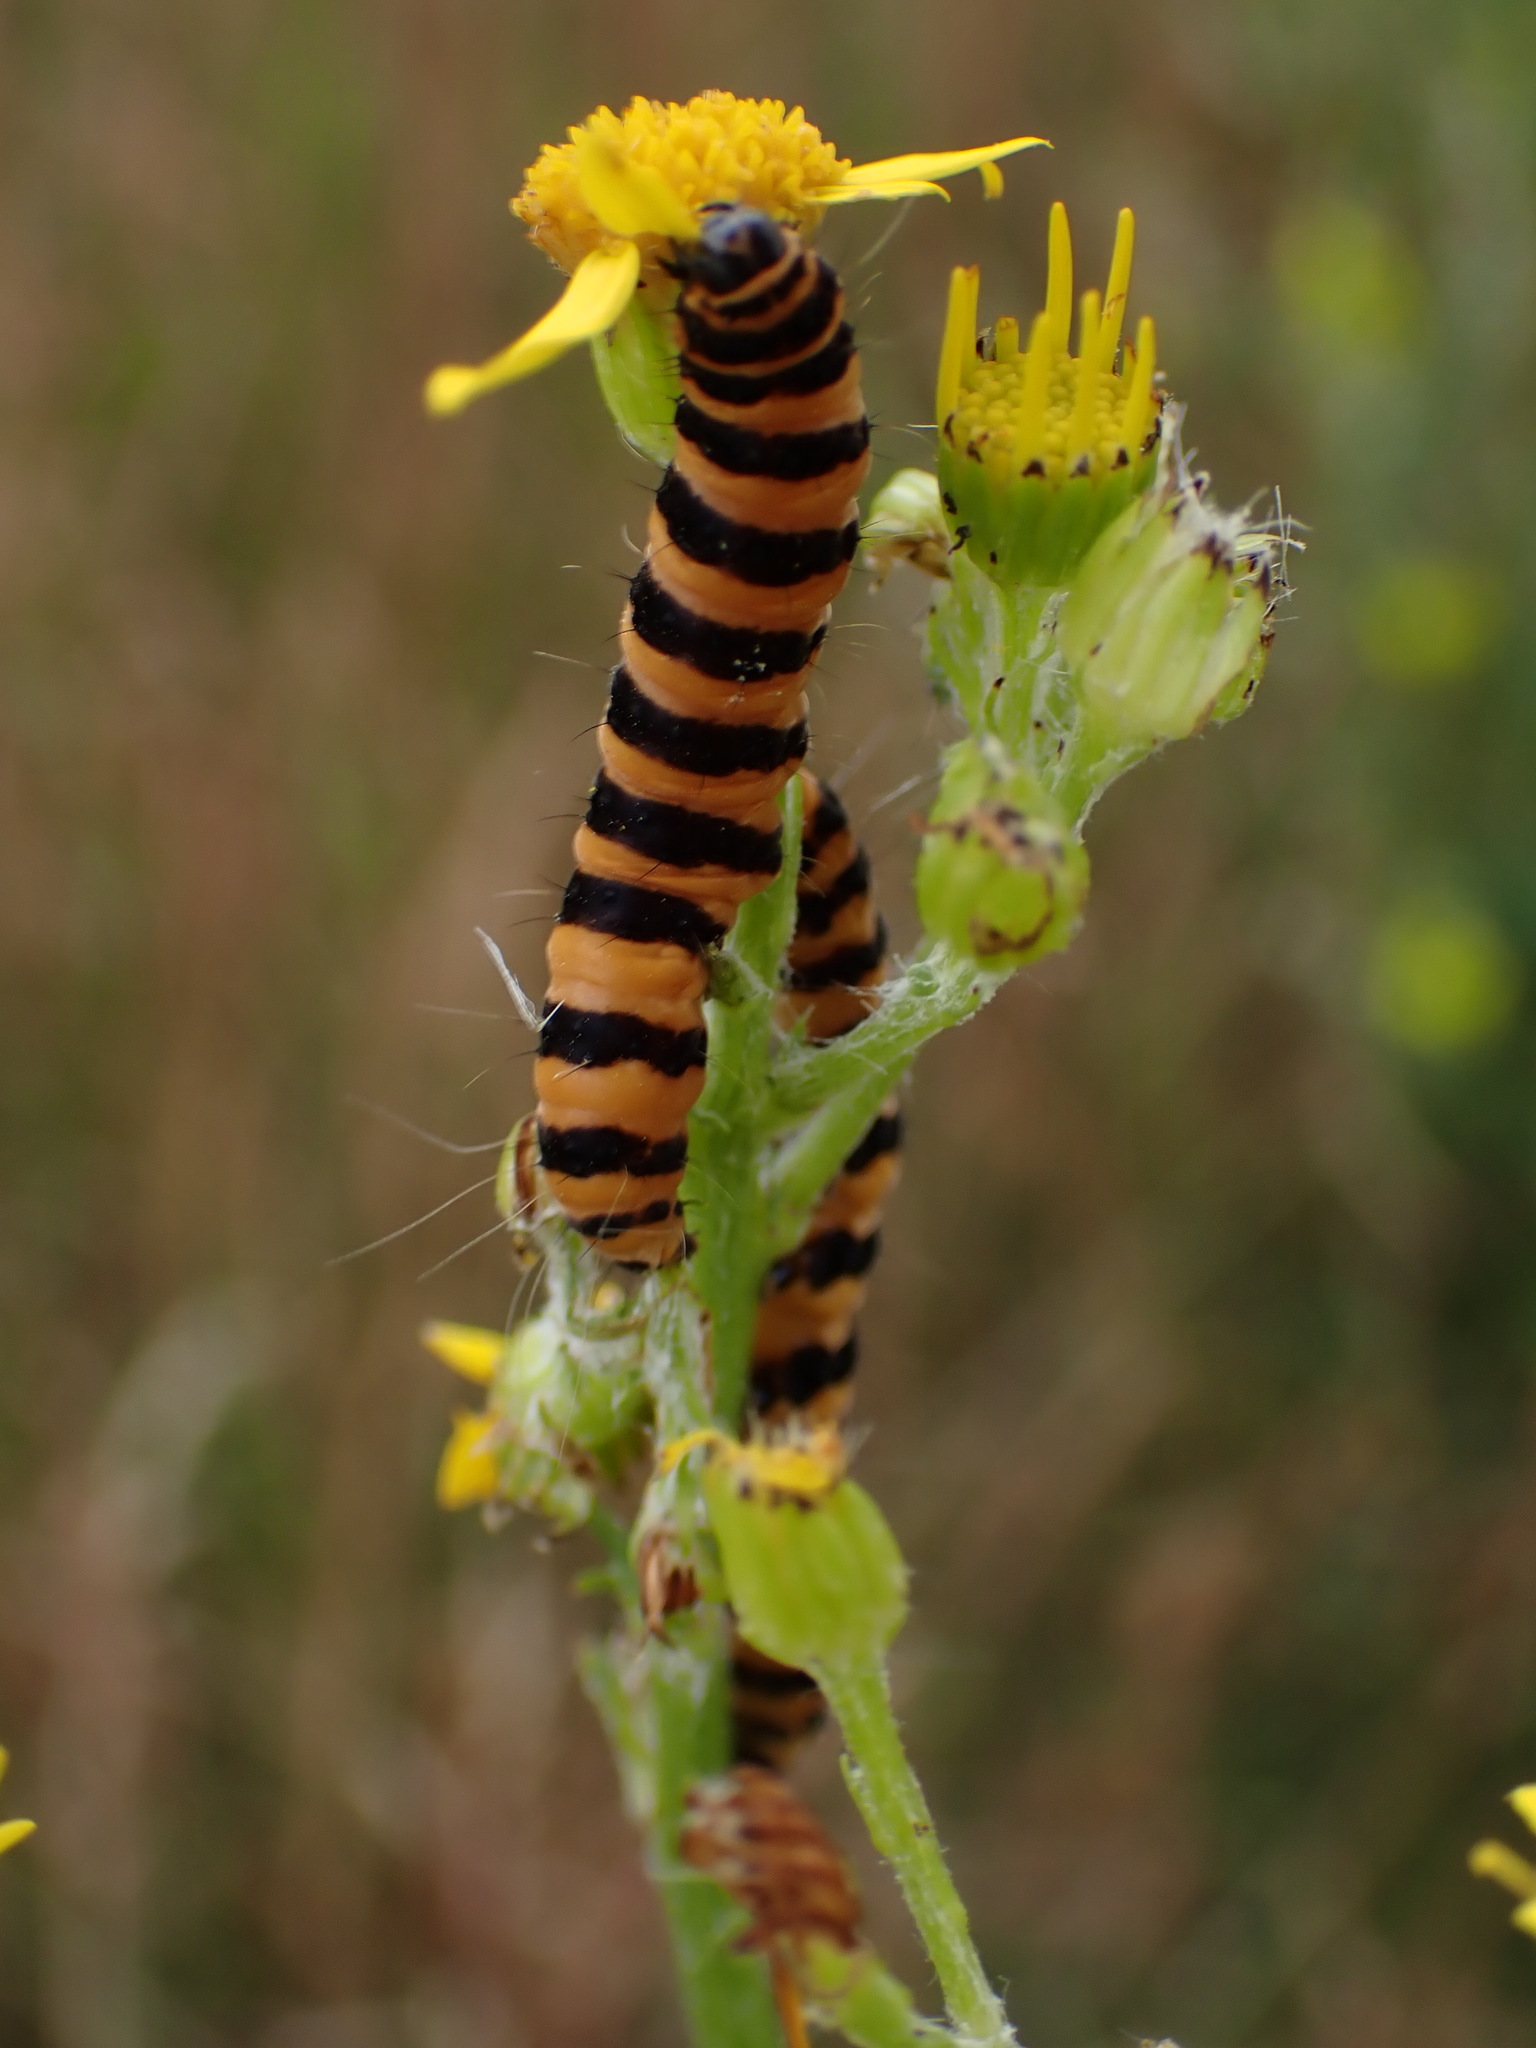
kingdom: Animalia
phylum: Arthropoda
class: Insecta
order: Lepidoptera
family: Erebidae
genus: Tyria
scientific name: Tyria jacobaeae
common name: Cinnabar
